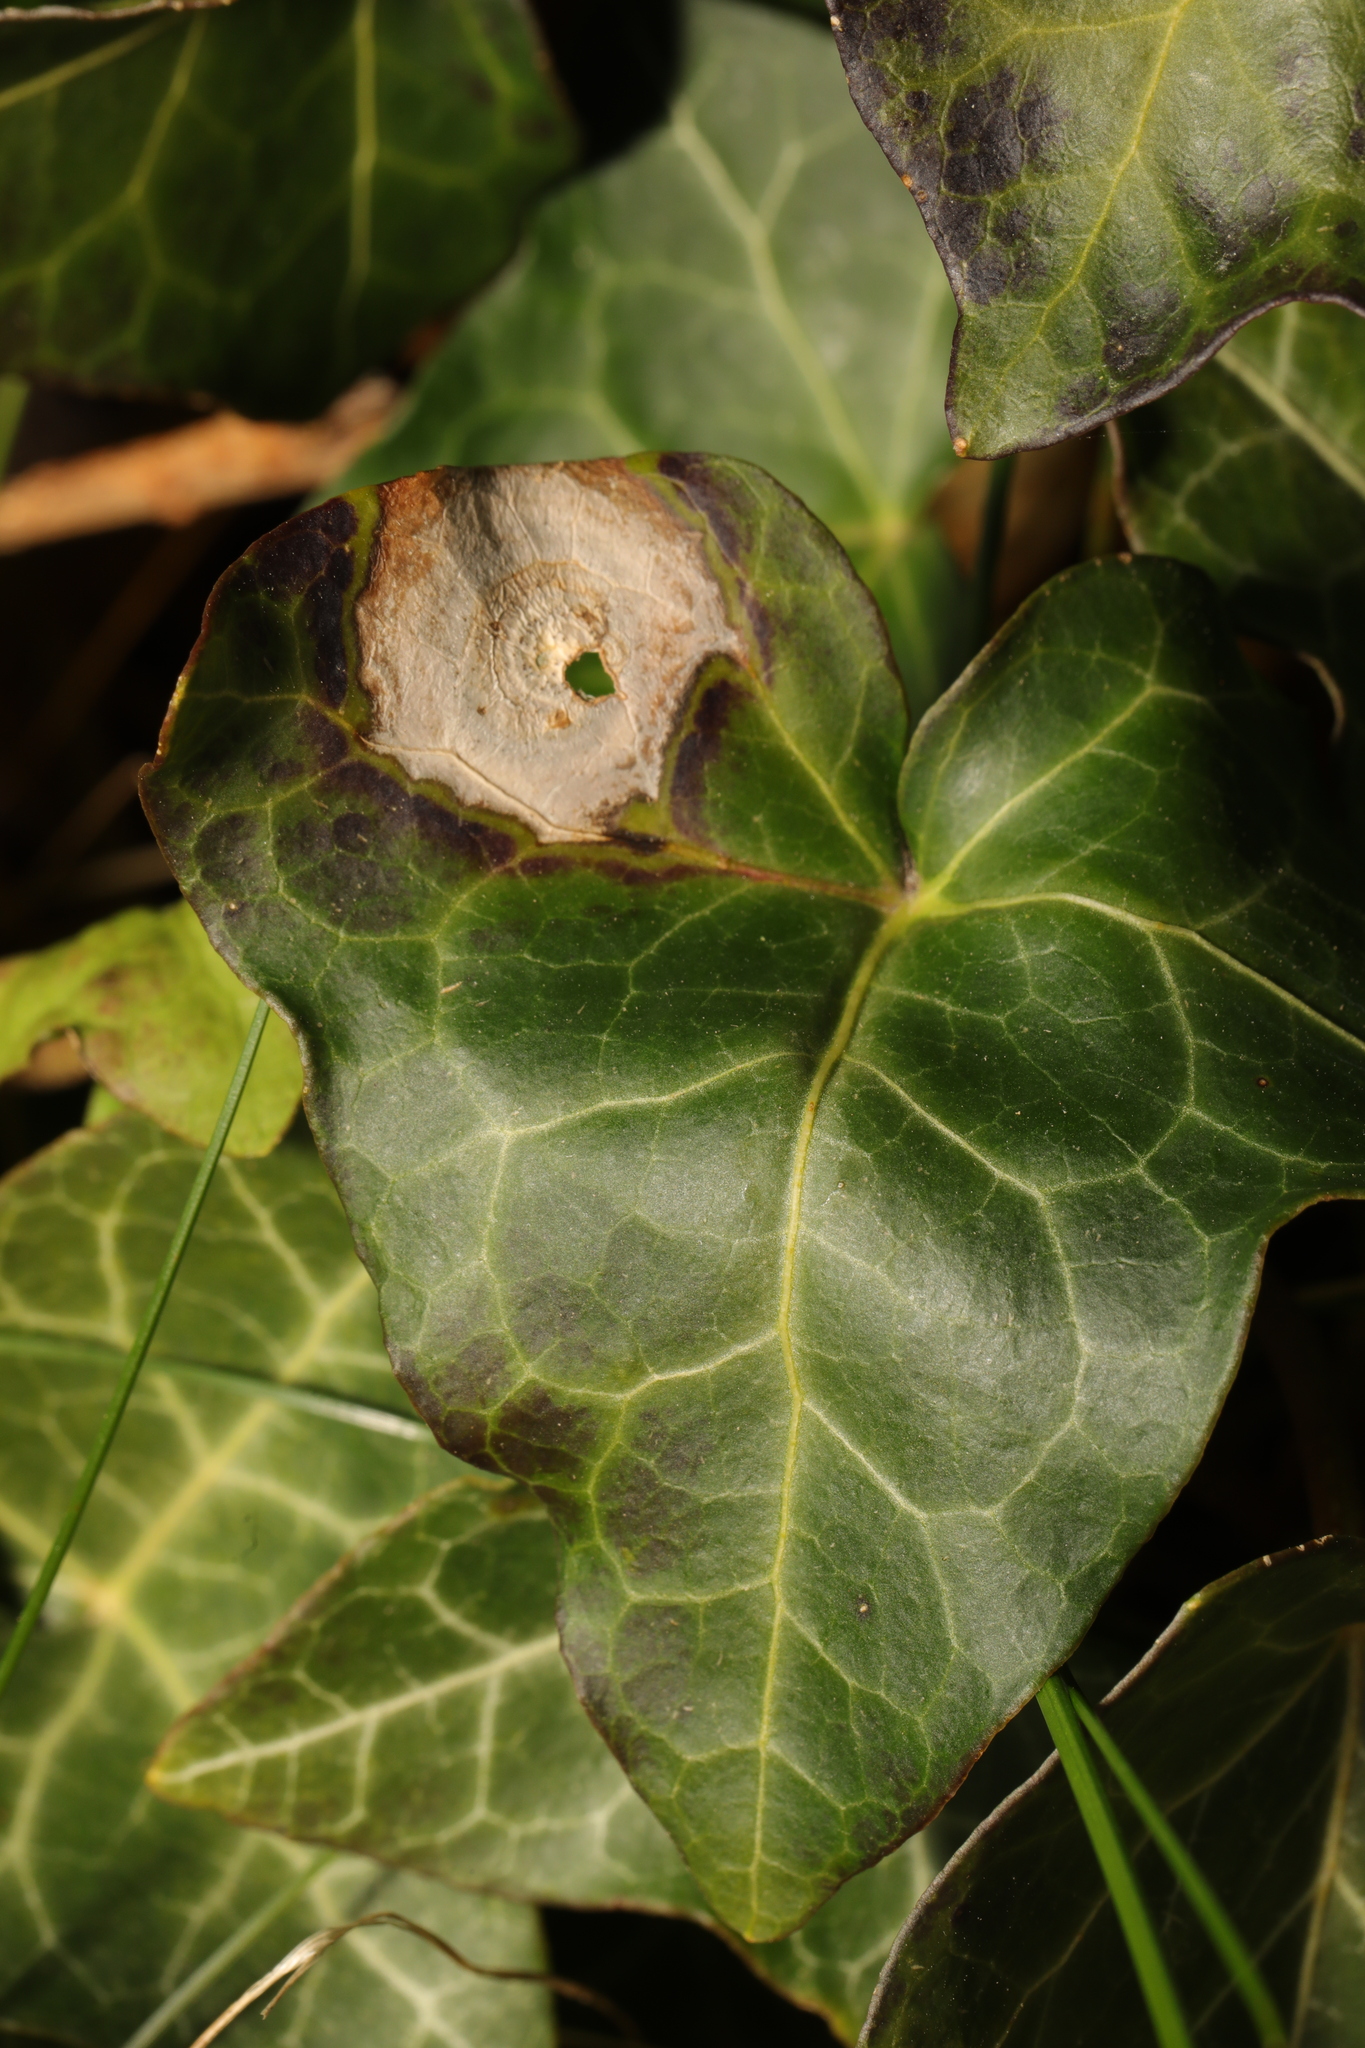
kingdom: Fungi
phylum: Ascomycota
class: Dothideomycetes
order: Pleosporales
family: Didymellaceae
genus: Boeremia
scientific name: Boeremia hedericola
